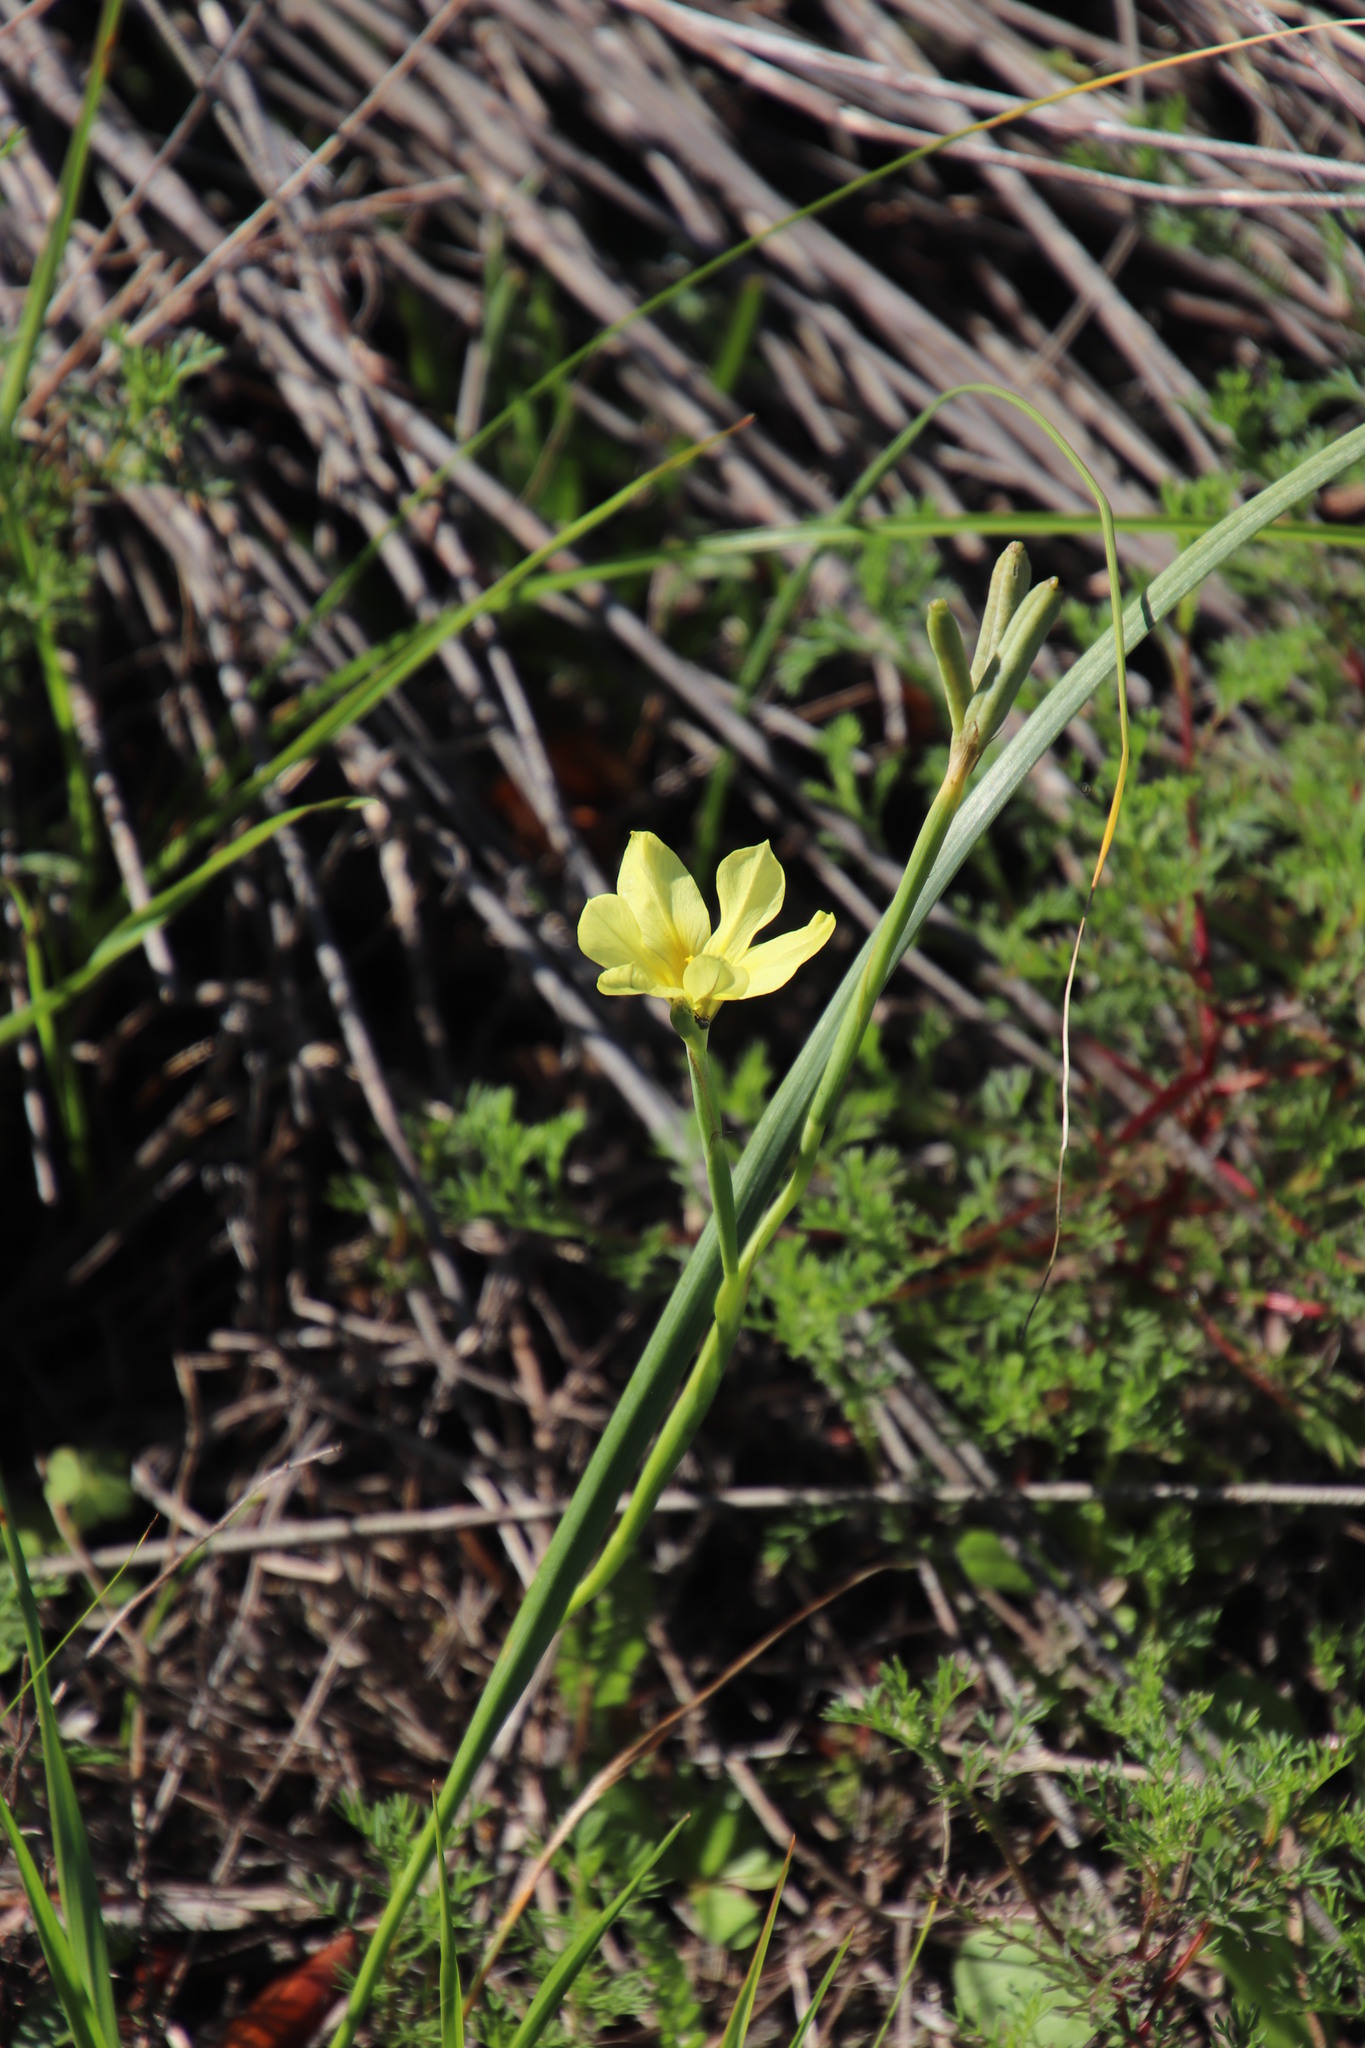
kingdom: Plantae
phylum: Tracheophyta
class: Liliopsida
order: Asparagales
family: Iridaceae
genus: Moraea
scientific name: Moraea collina
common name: Cape-tulip
